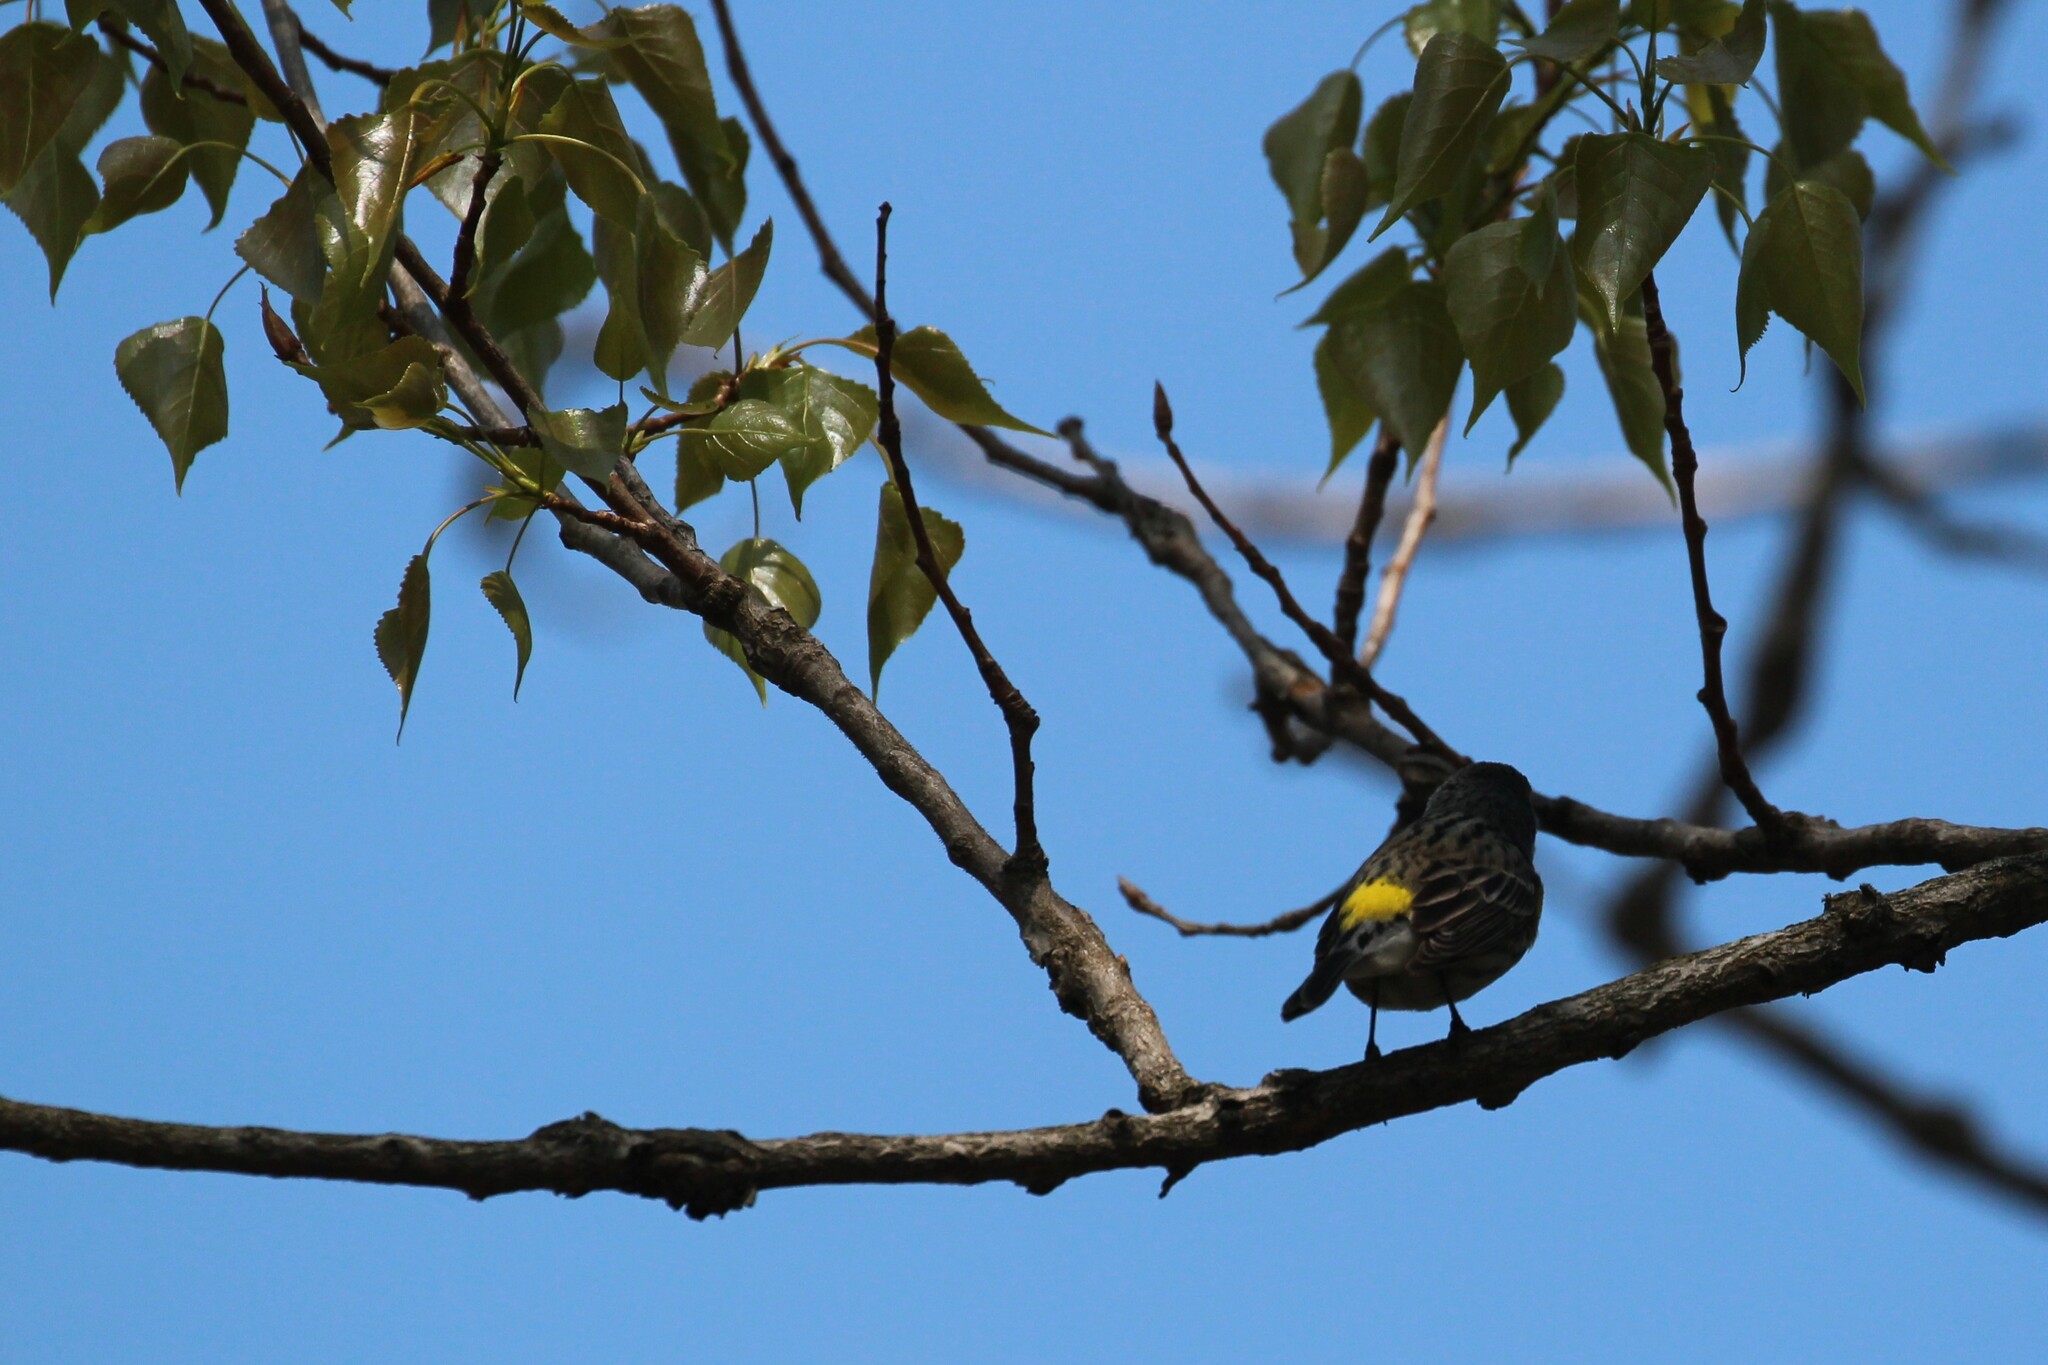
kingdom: Animalia
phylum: Chordata
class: Aves
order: Passeriformes
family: Parulidae
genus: Setophaga
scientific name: Setophaga coronata
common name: Myrtle warbler
